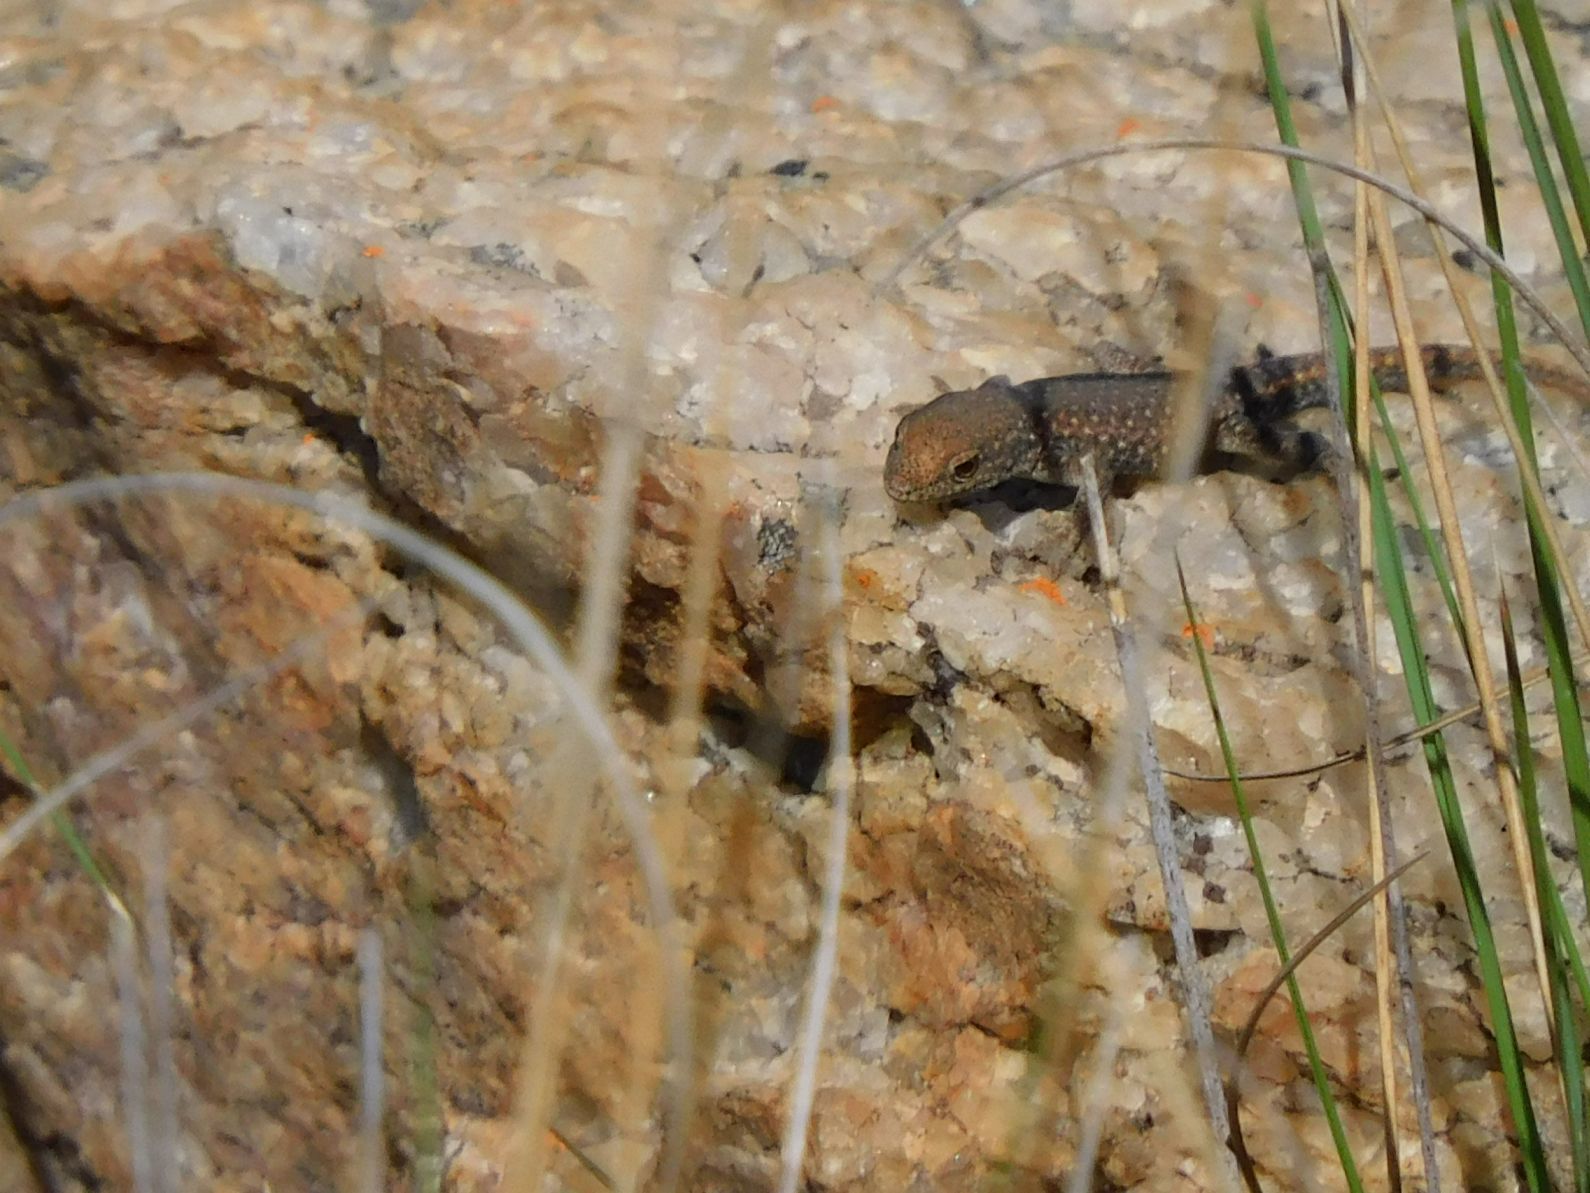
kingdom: Animalia
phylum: Chordata
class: Squamata
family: Gekkonidae
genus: Lygodactylus
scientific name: Lygodactylus ocellatus
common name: Spotted dwarf gecko
